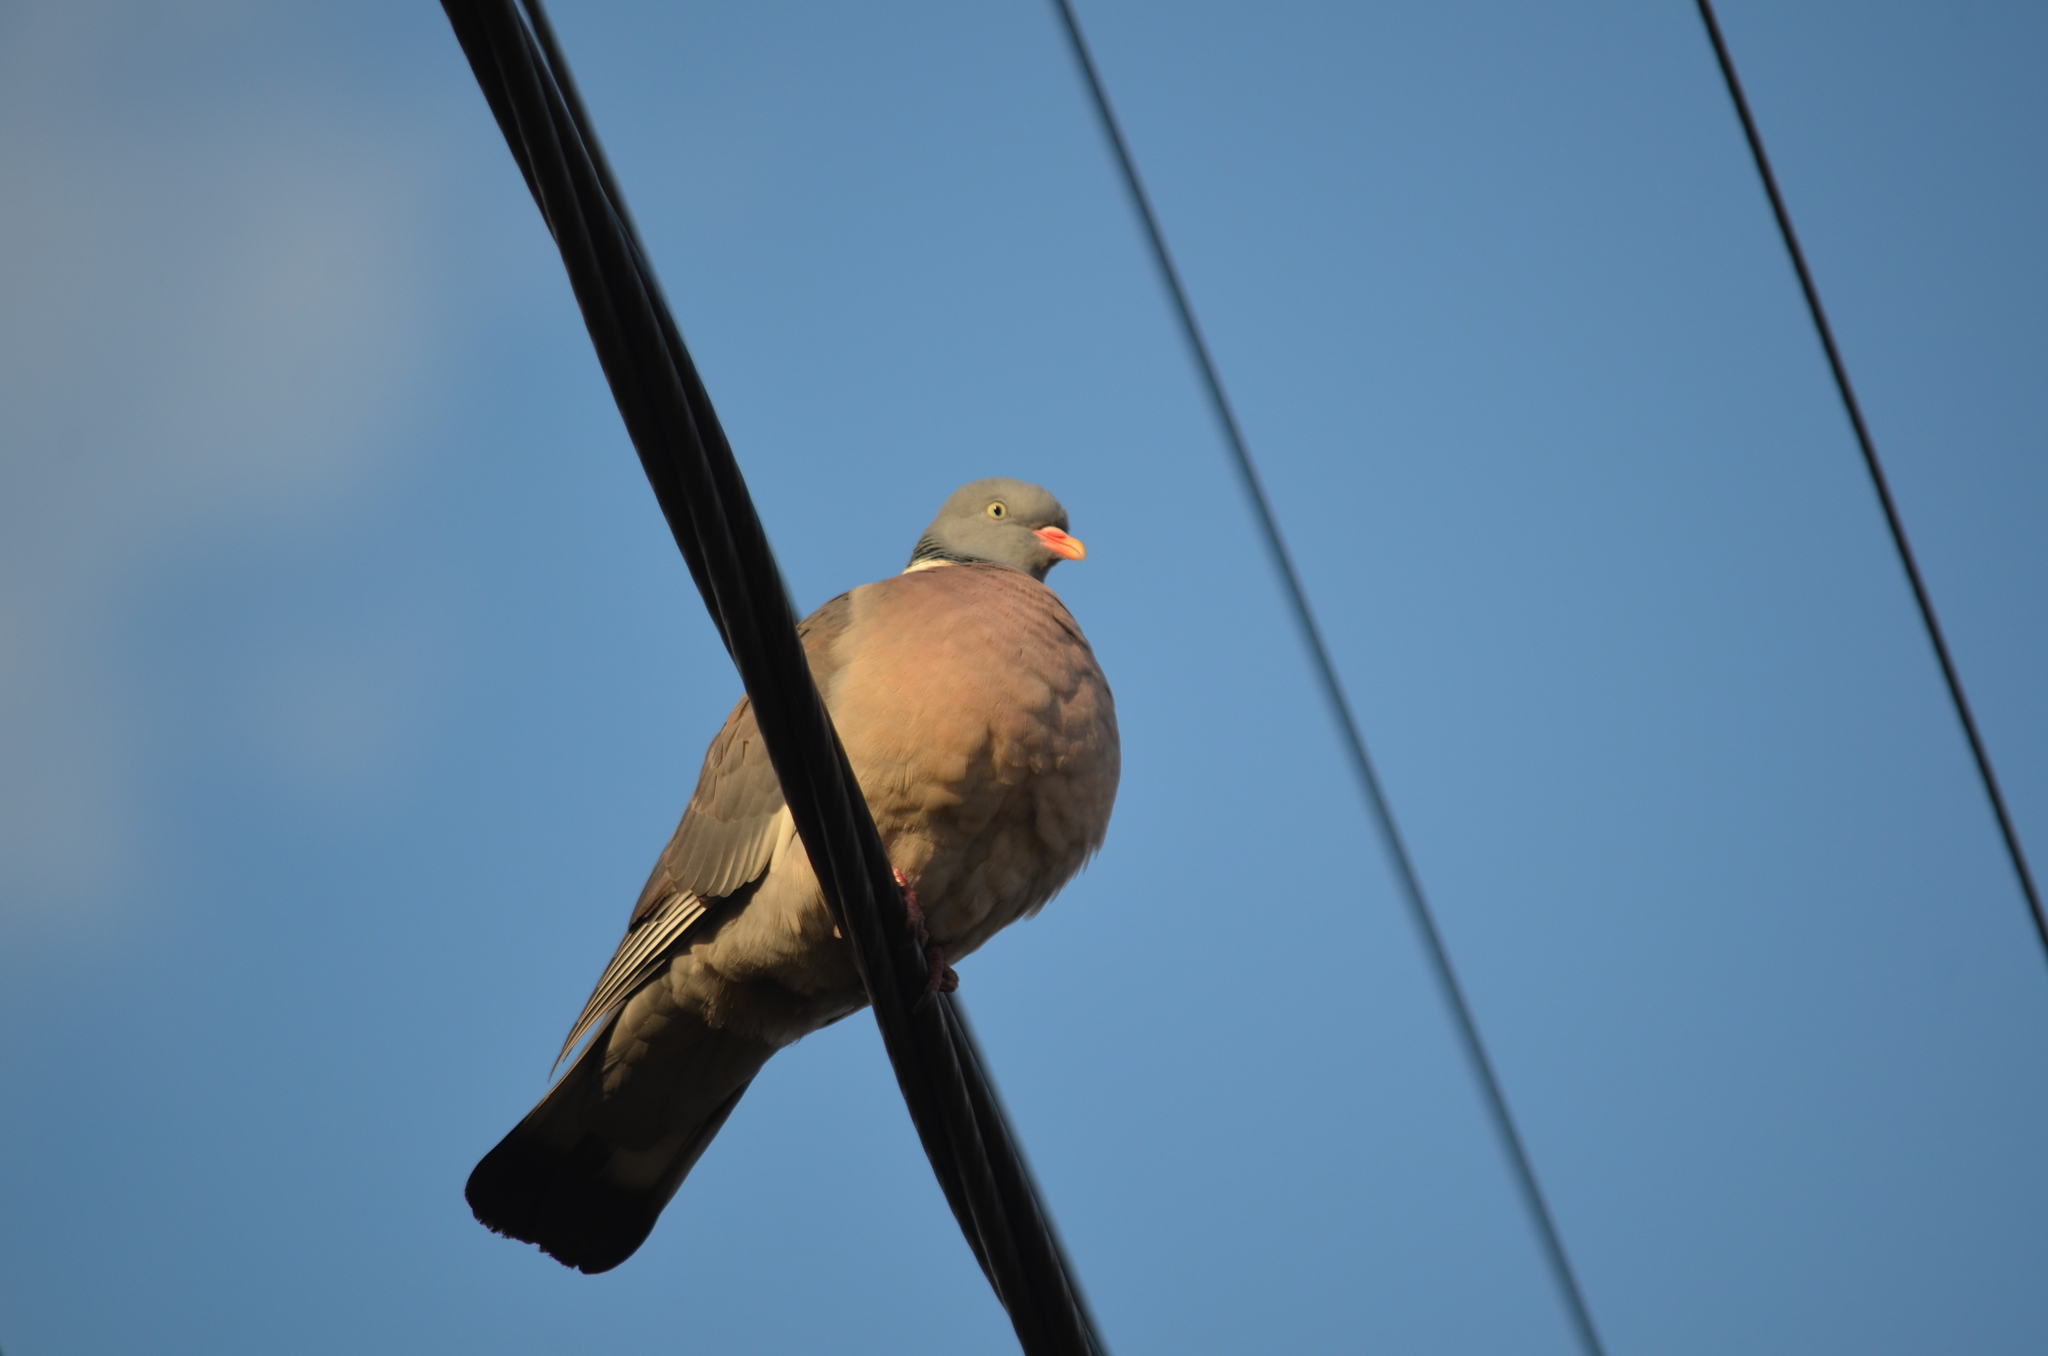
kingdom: Animalia
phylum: Chordata
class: Aves
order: Columbiformes
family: Columbidae
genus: Columba
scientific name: Columba palumbus
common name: Common wood pigeon
